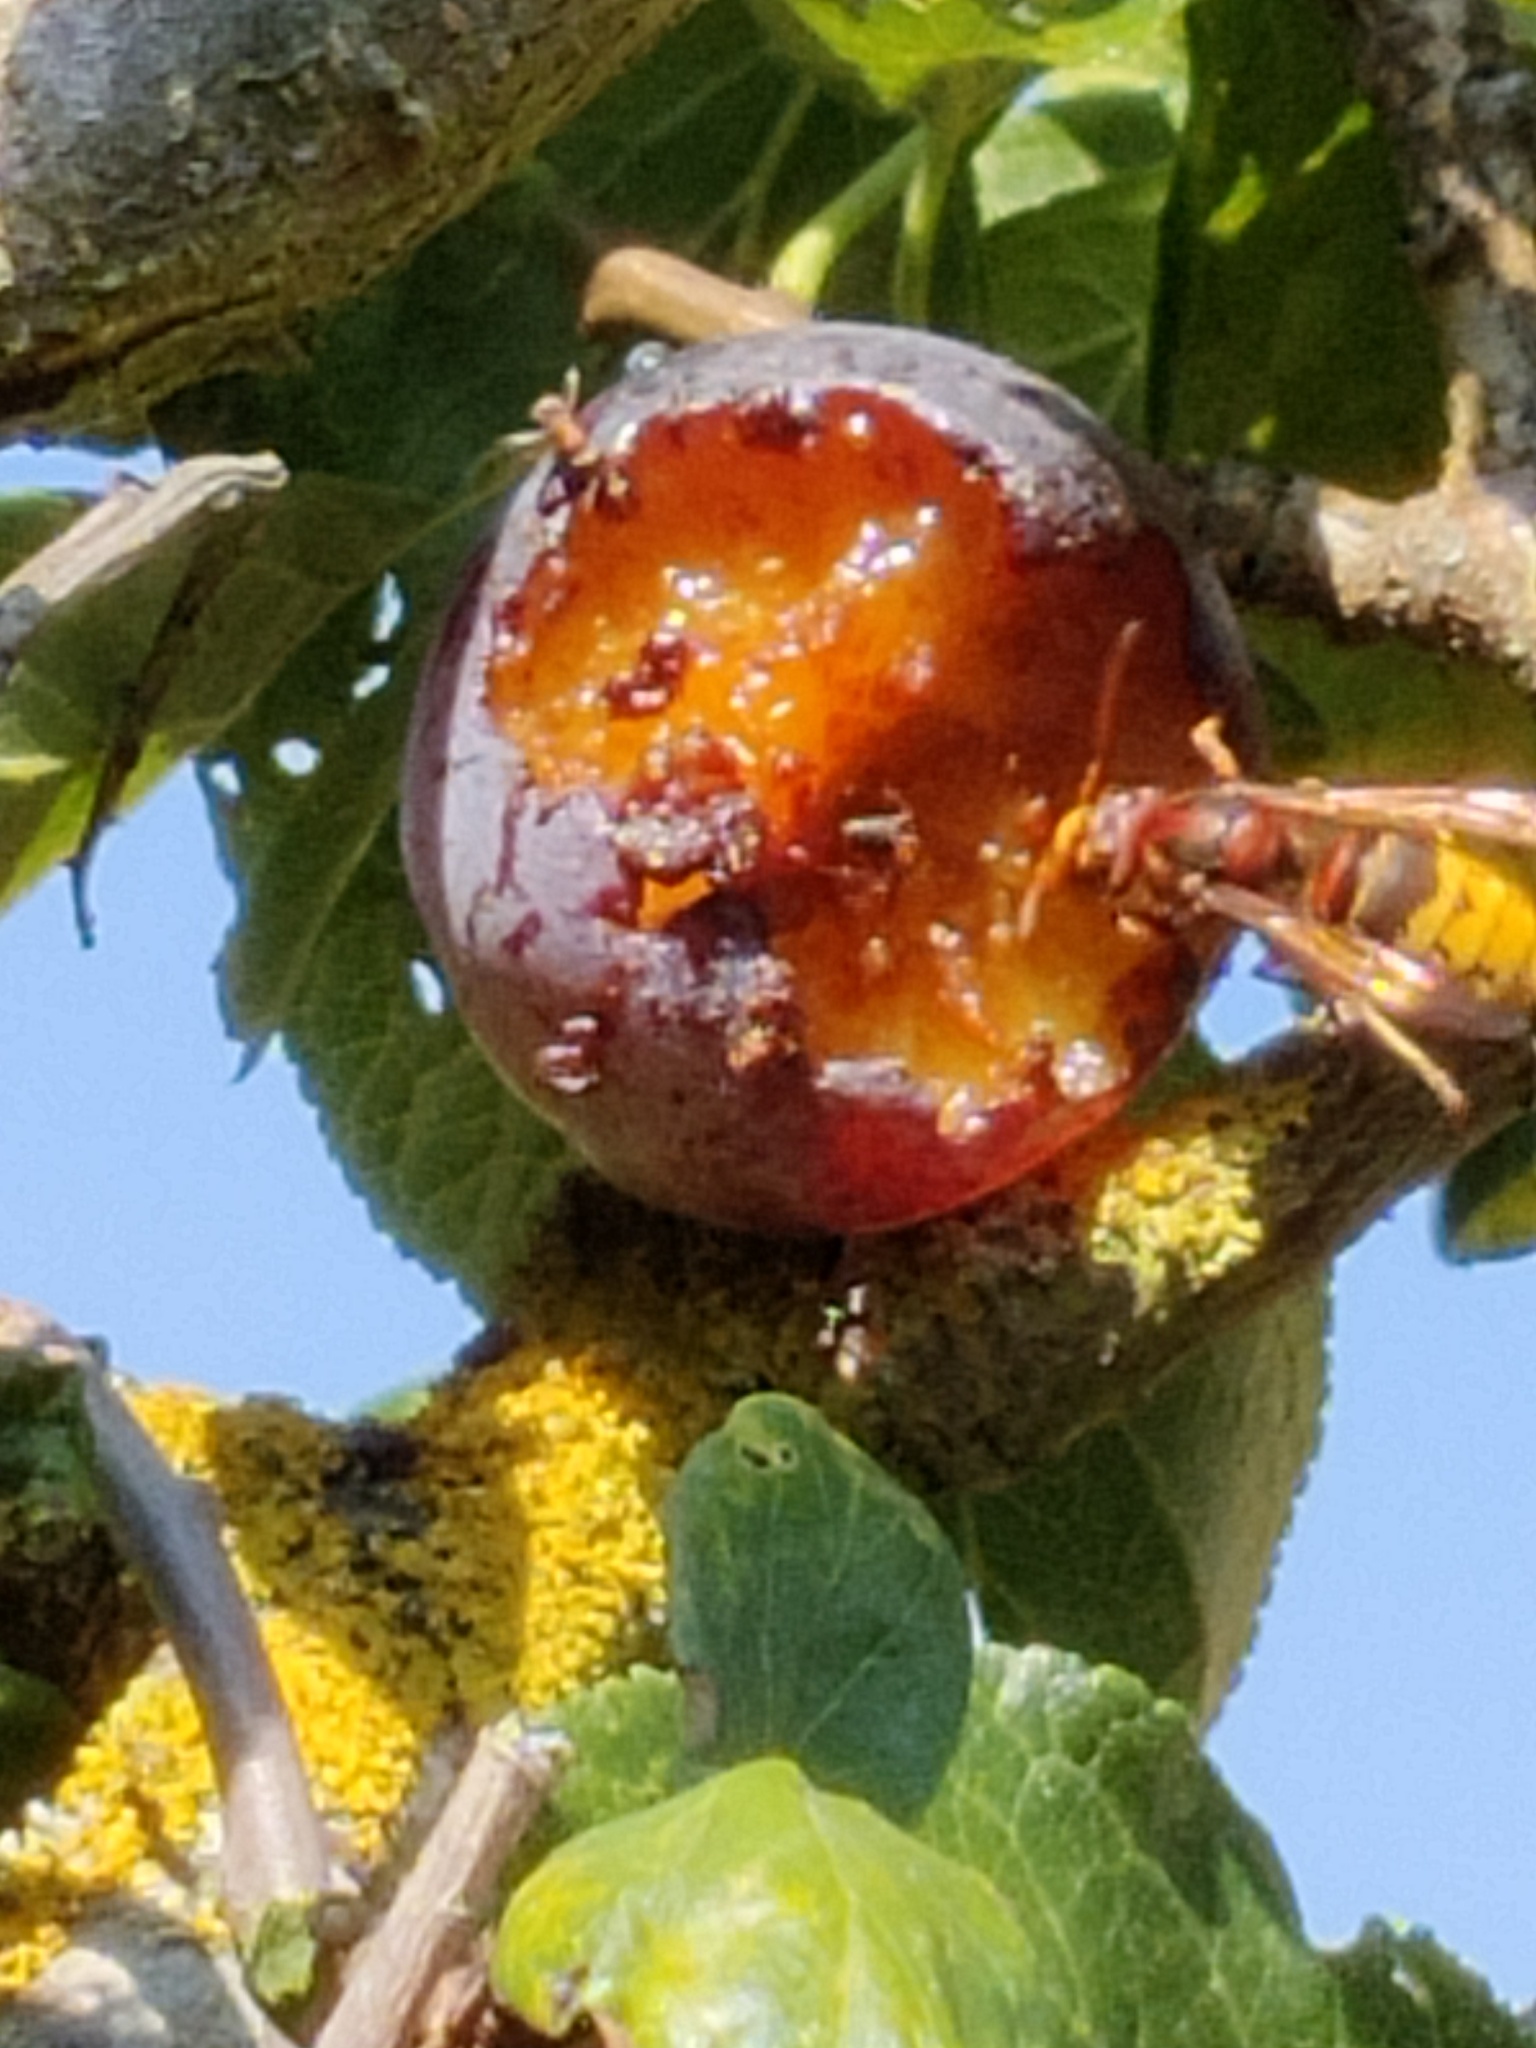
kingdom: Animalia
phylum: Arthropoda
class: Insecta
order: Hymenoptera
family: Vespidae
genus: Vespa
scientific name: Vespa crabro
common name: Hornet
